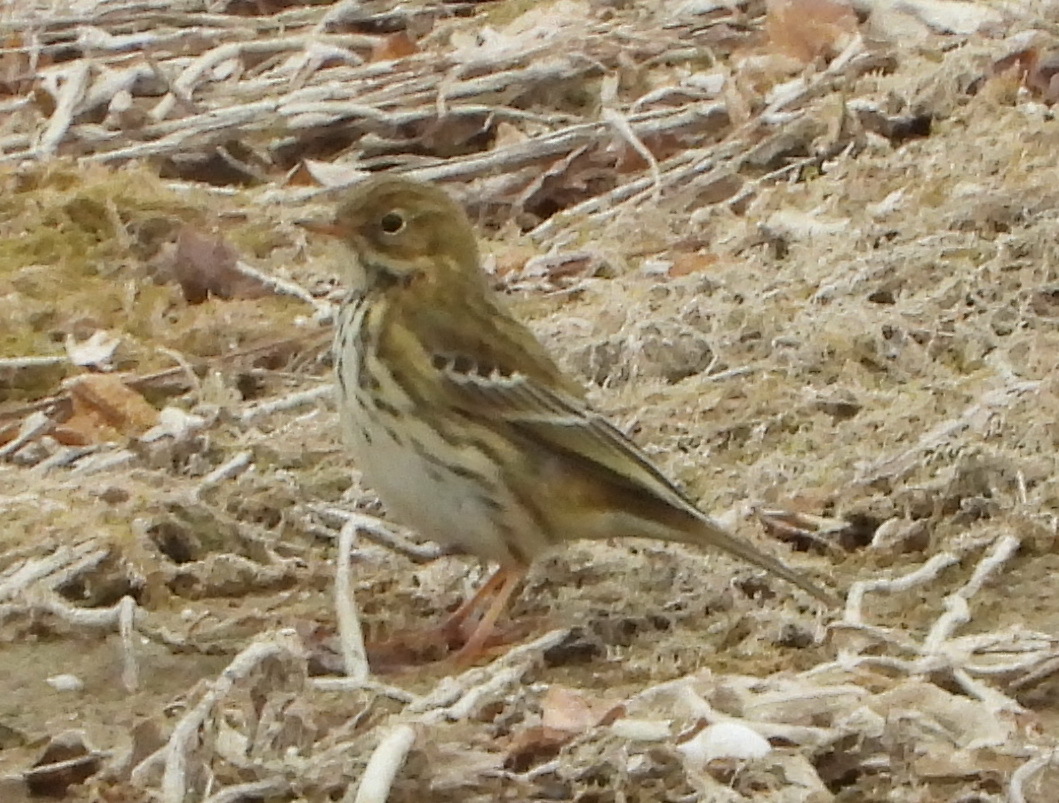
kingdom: Animalia
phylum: Chordata
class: Aves
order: Passeriformes
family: Motacillidae
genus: Anthus
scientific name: Anthus pratensis
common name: Meadow pipit
